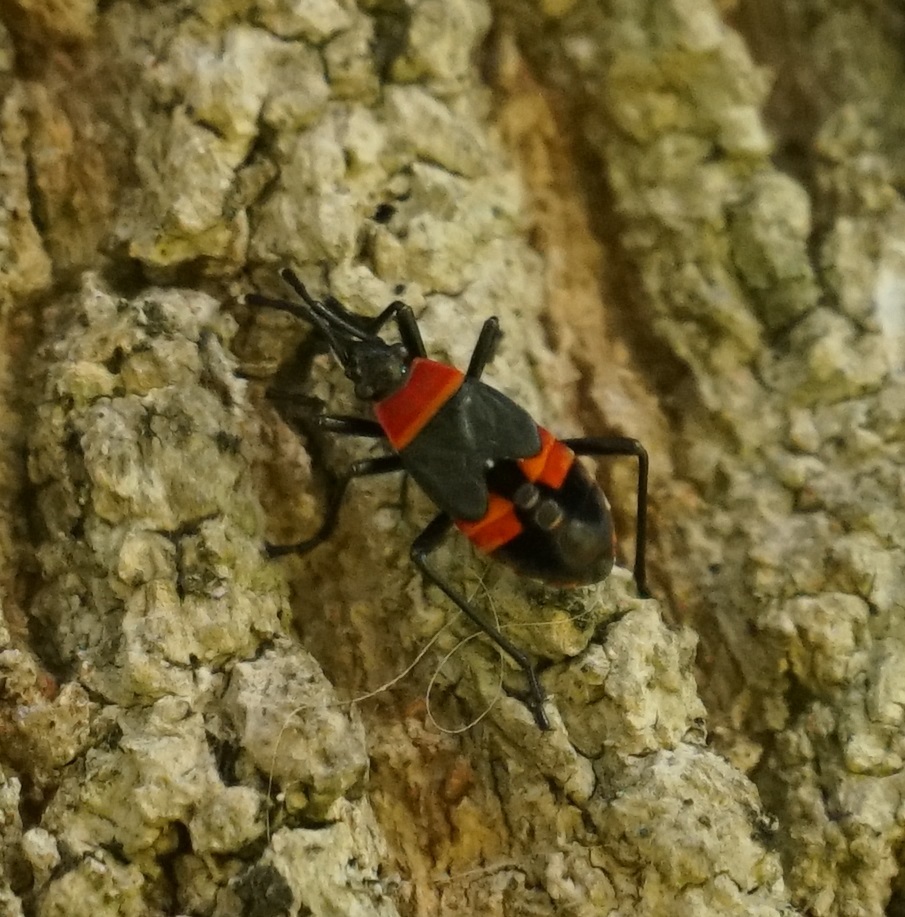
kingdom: Animalia
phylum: Arthropoda
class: Insecta
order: Hemiptera
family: Pyrrhocoridae
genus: Dindymus
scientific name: Dindymus
